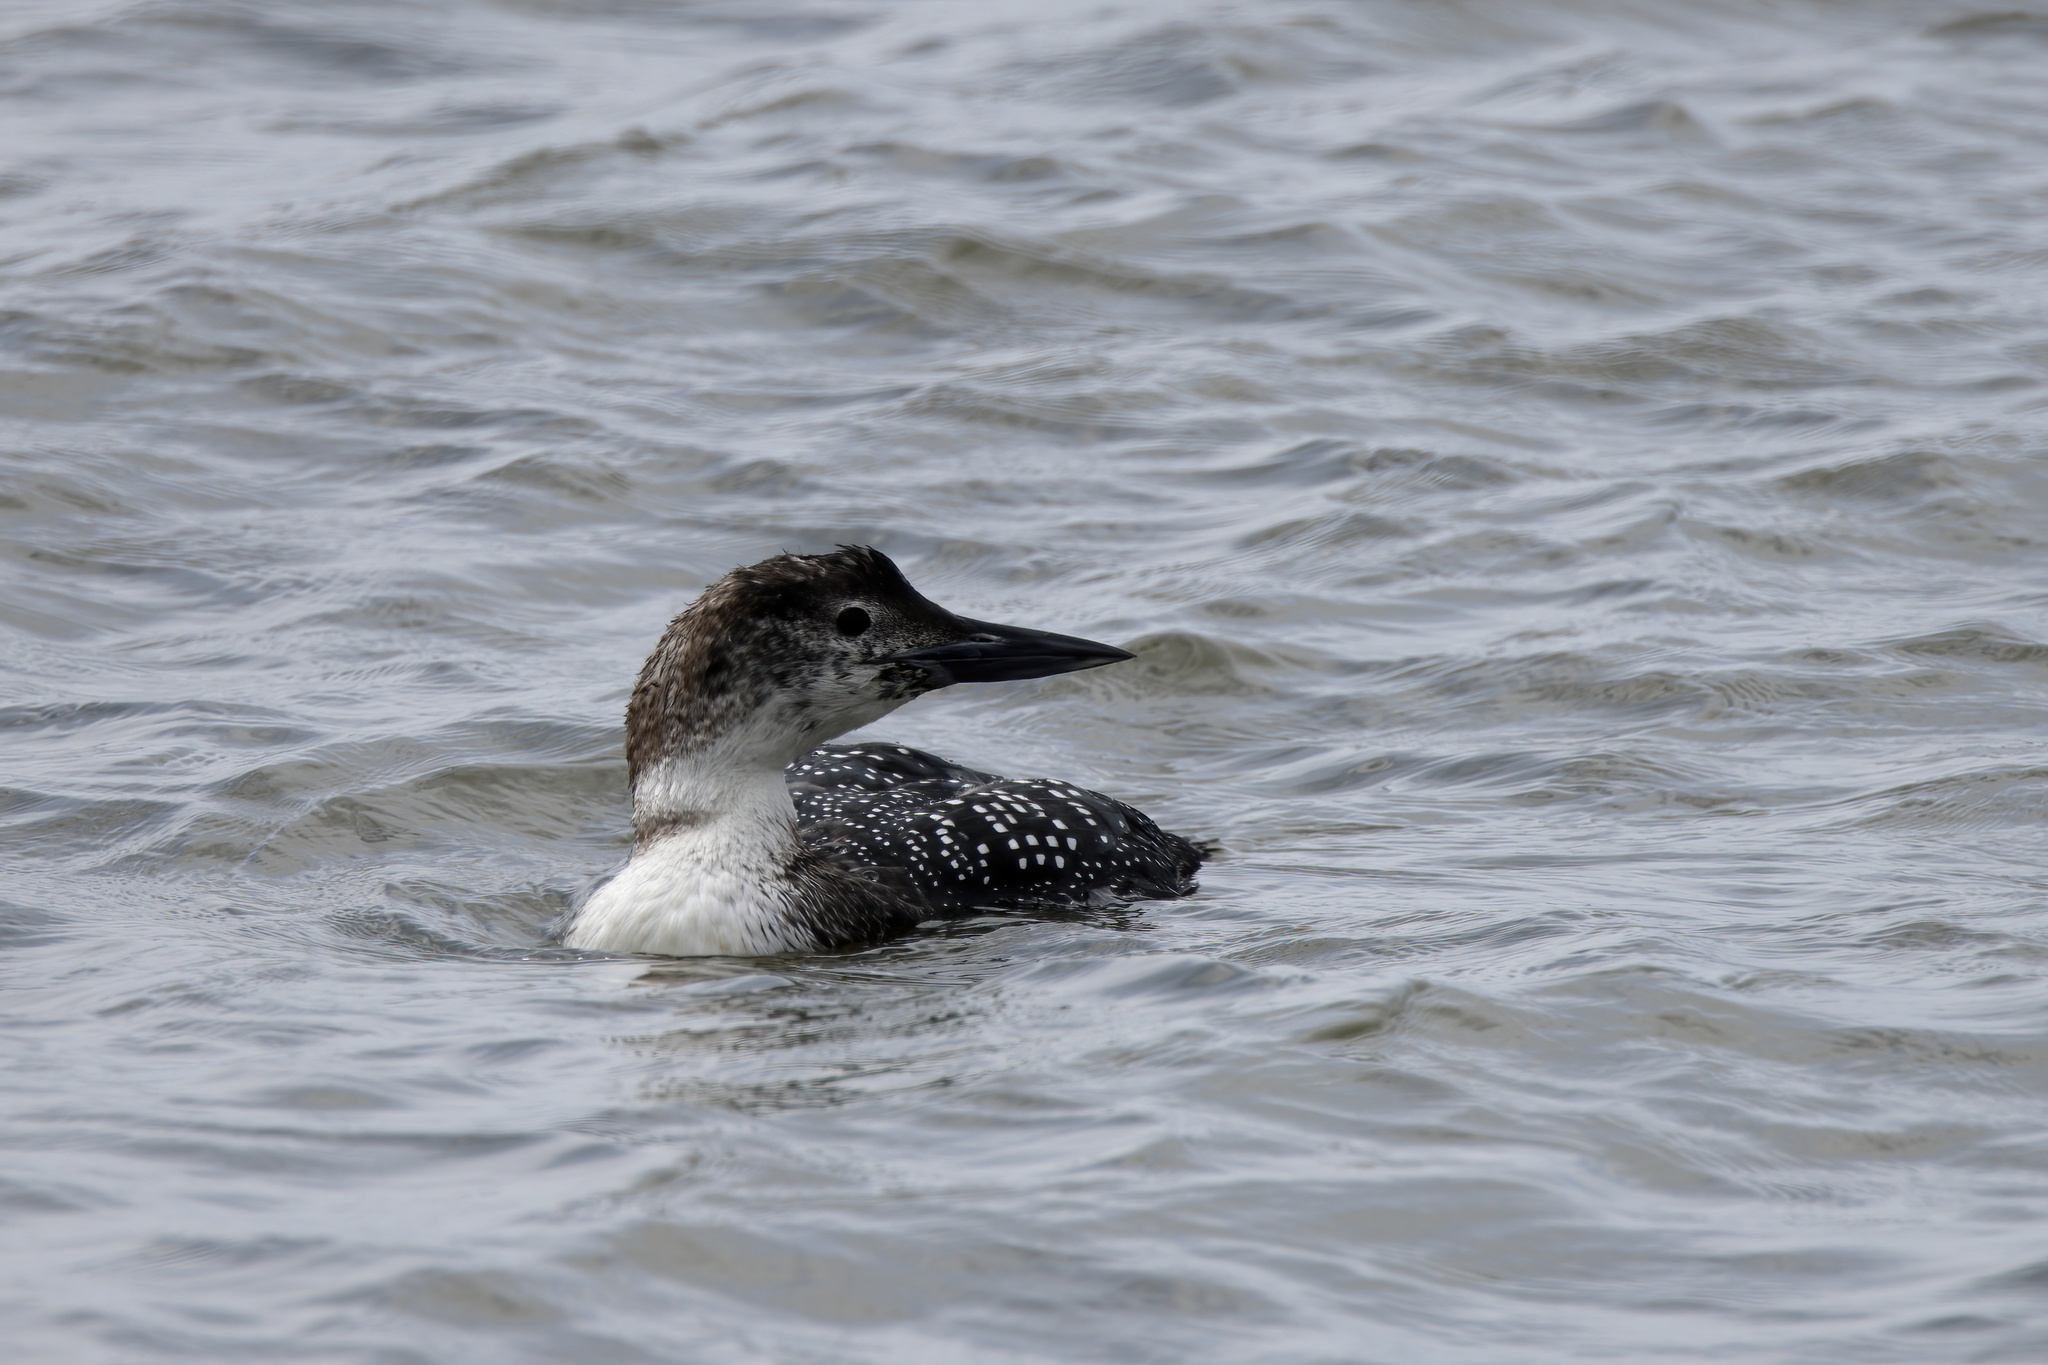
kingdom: Animalia
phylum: Chordata
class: Aves
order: Gaviiformes
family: Gaviidae
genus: Gavia
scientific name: Gavia immer
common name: Common loon
